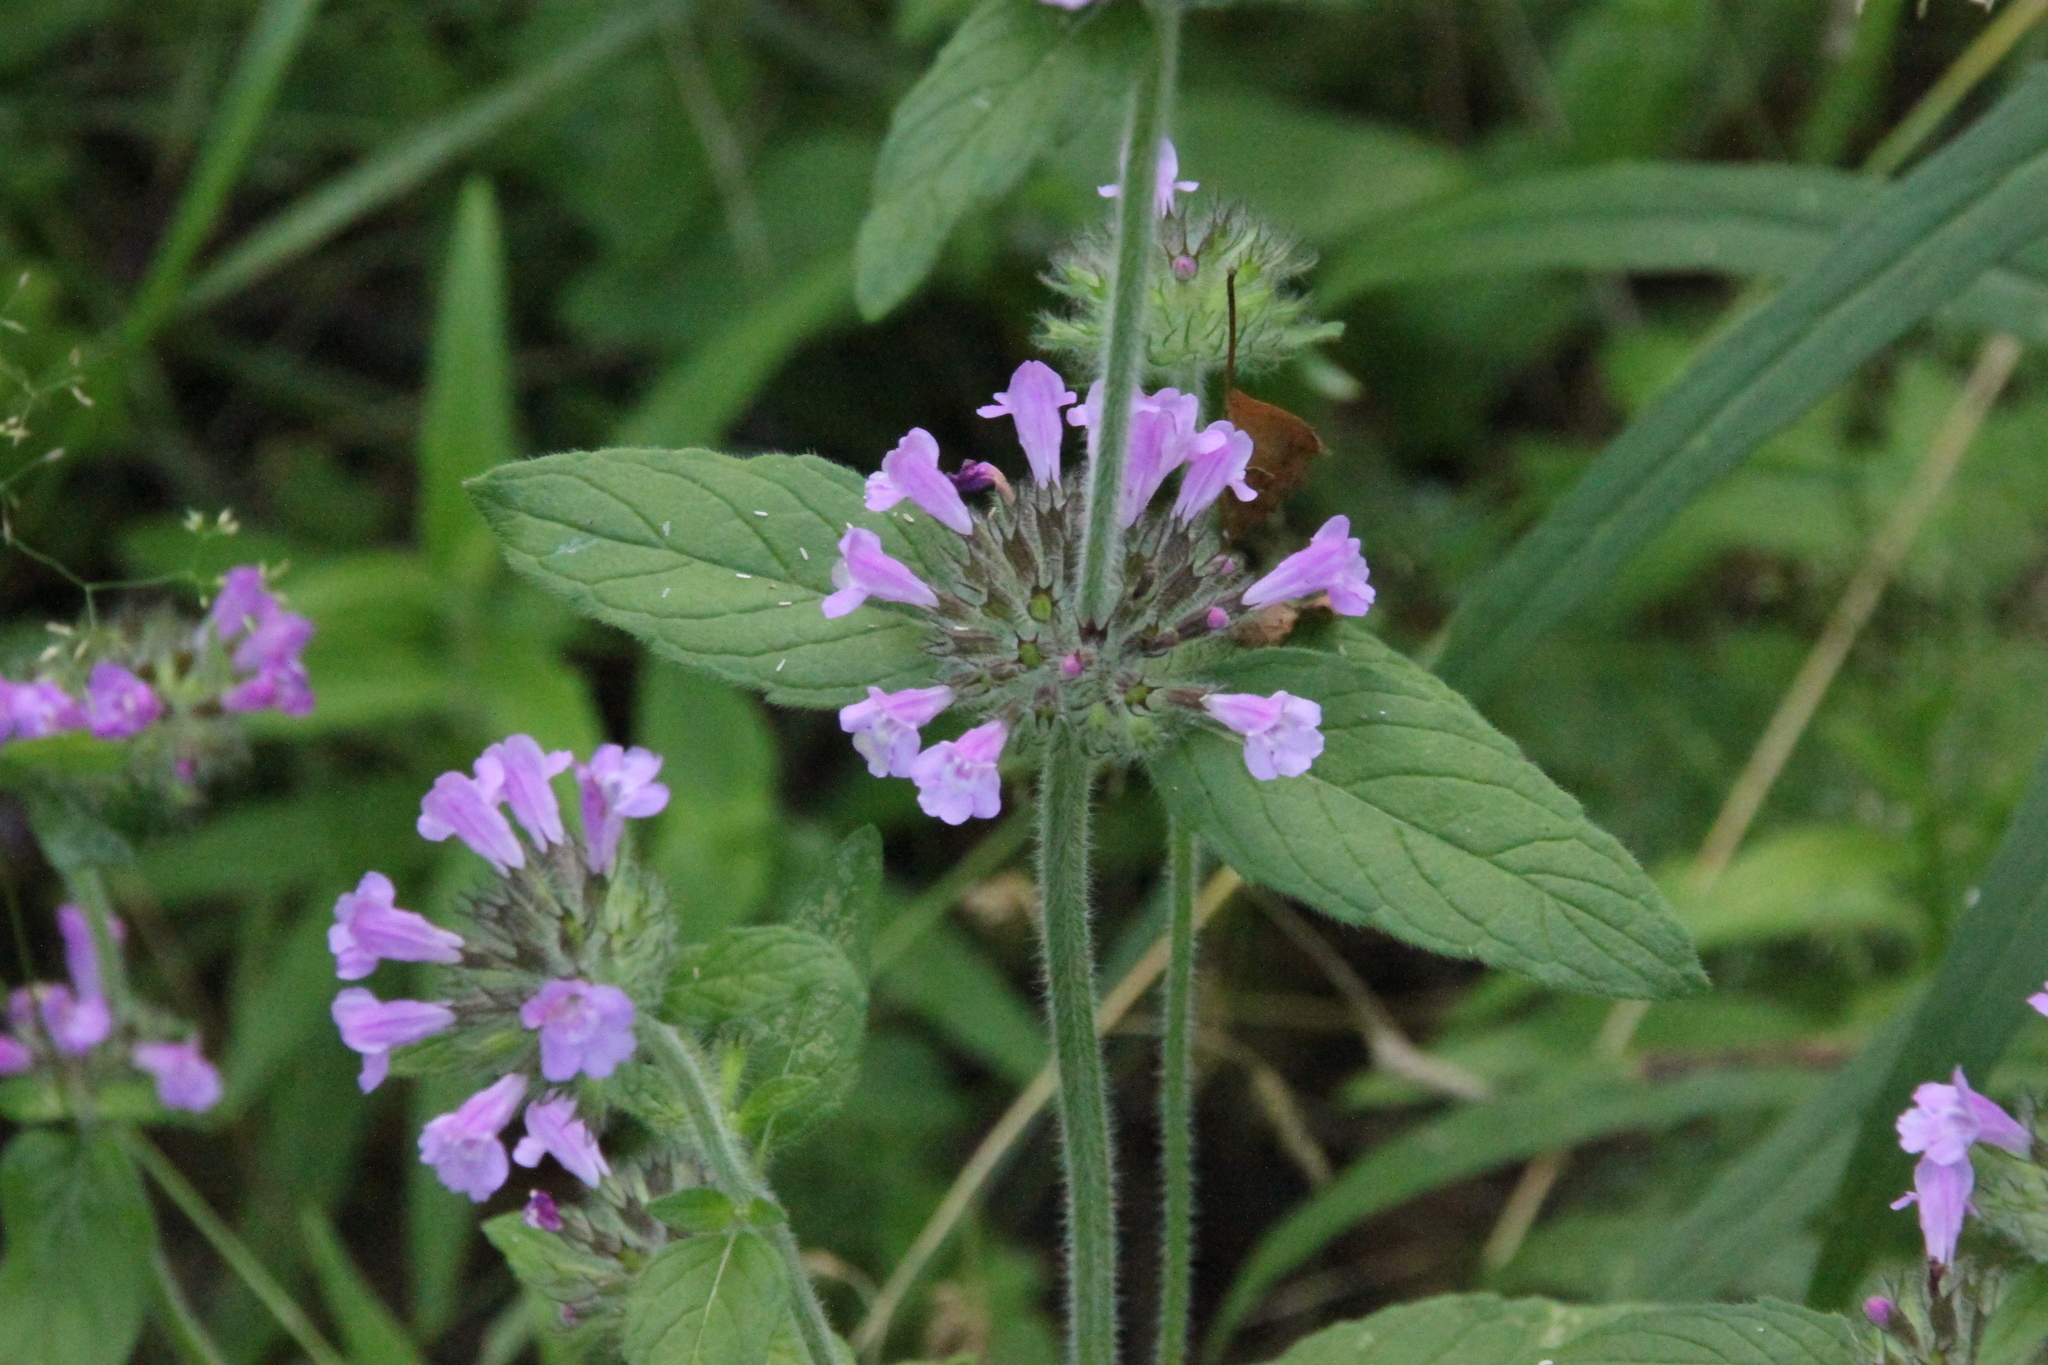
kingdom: Plantae
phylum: Tracheophyta
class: Magnoliopsida
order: Lamiales
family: Lamiaceae
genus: Clinopodium
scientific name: Clinopodium vulgare
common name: Wild basil
